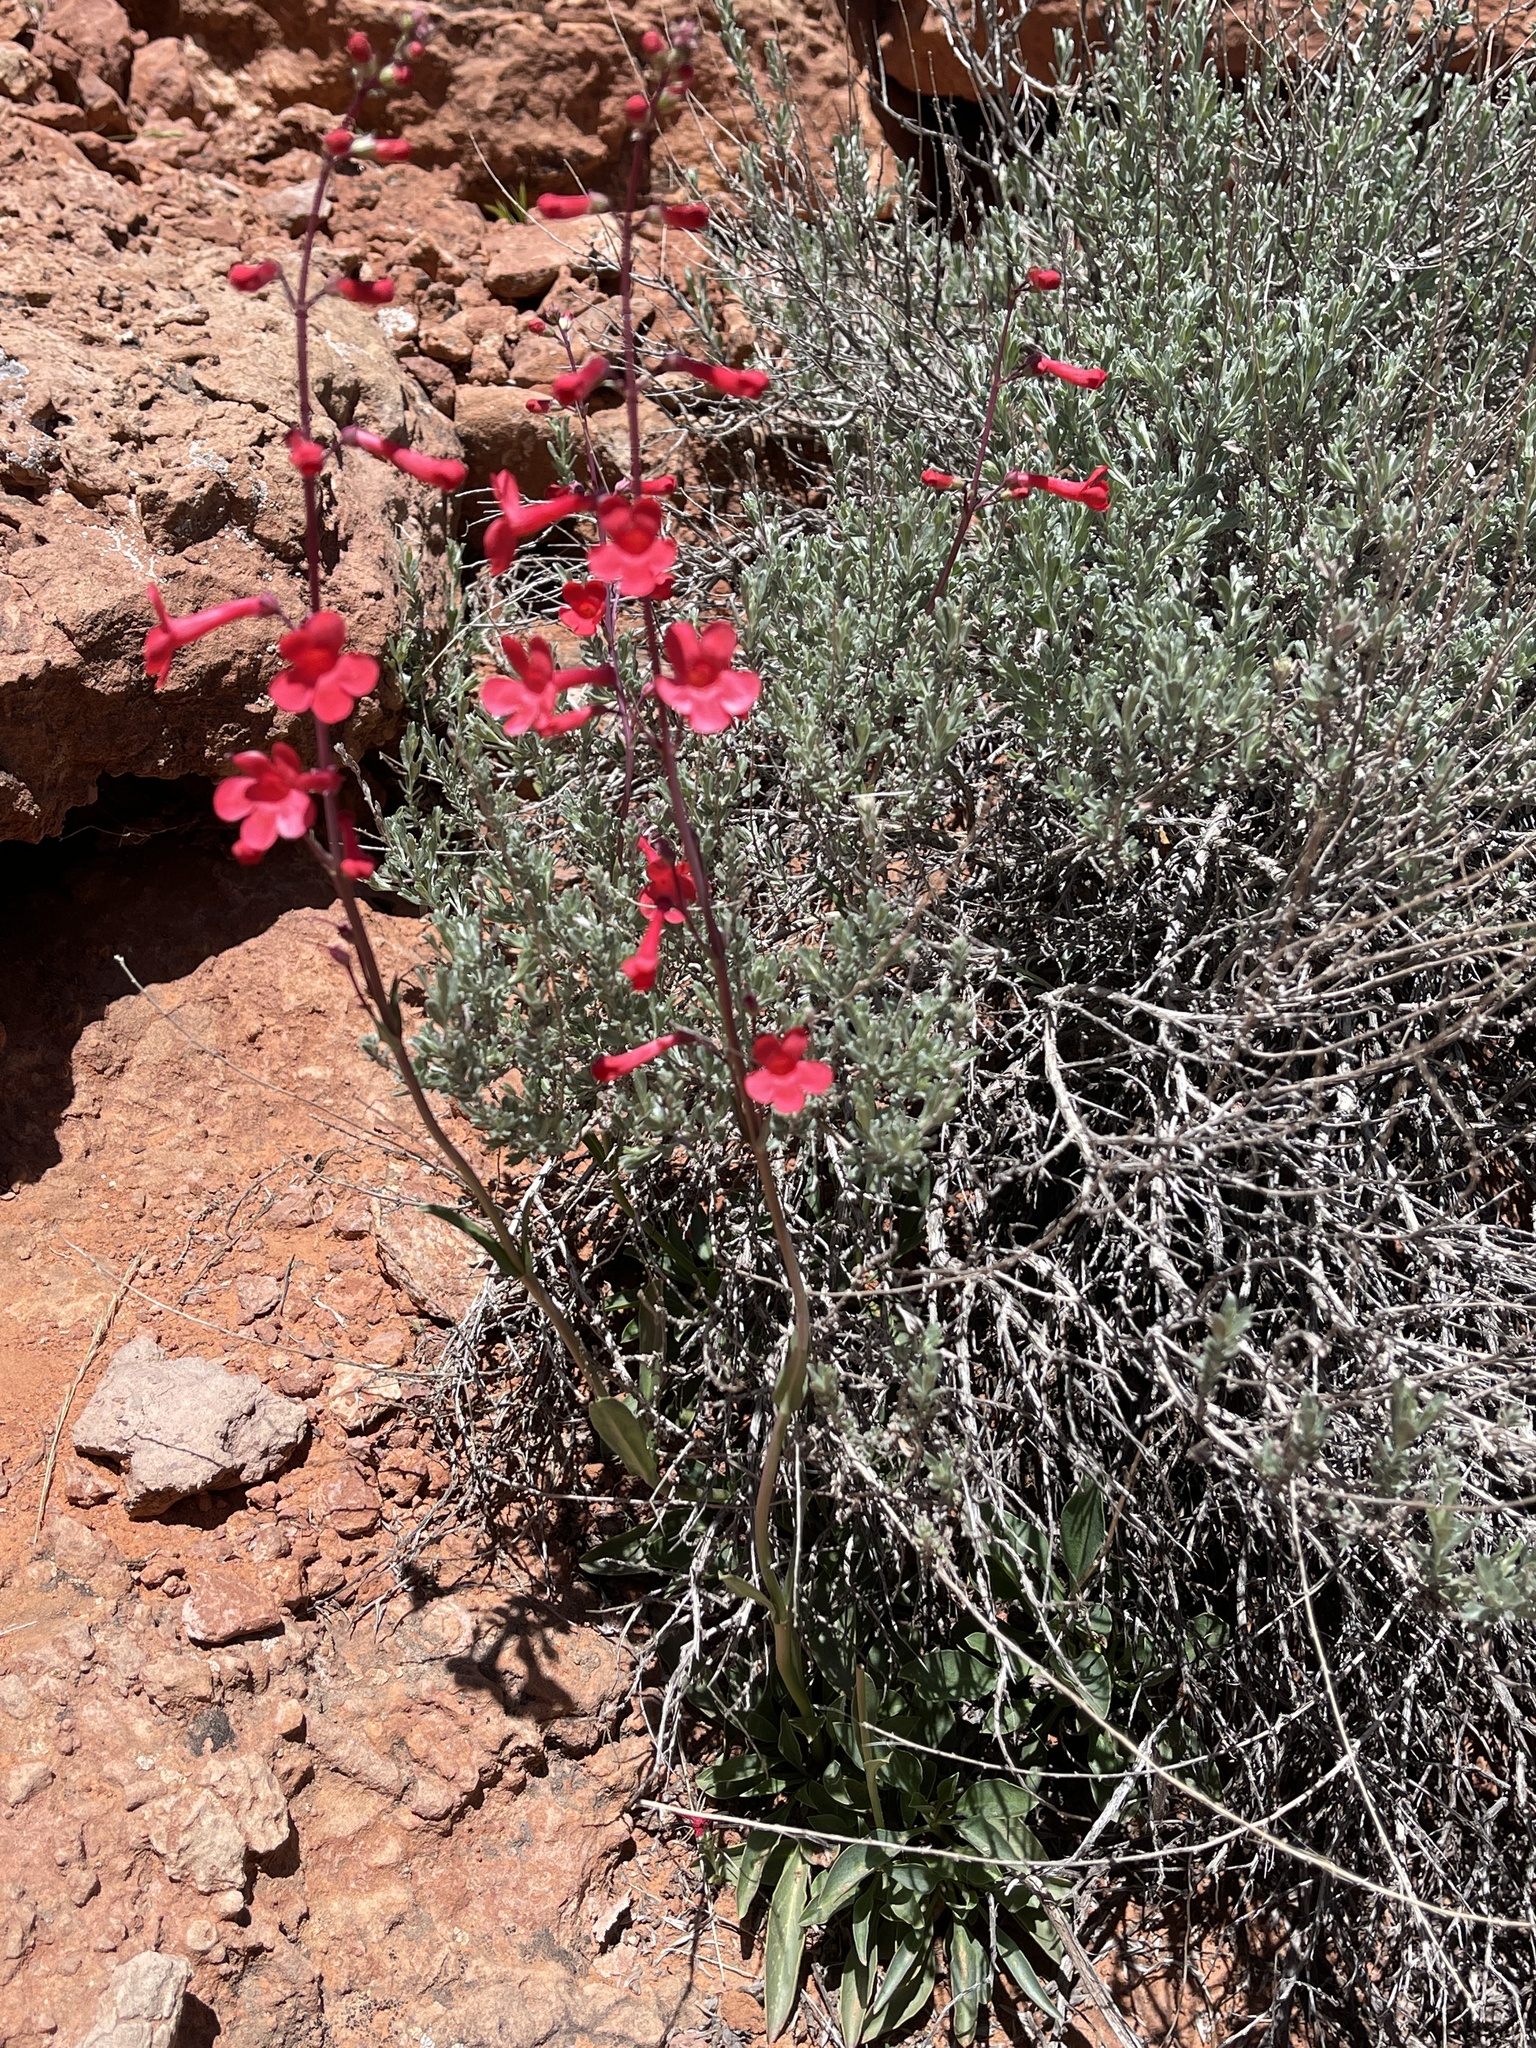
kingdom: Plantae
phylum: Tracheophyta
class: Magnoliopsida
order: Lamiales
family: Plantaginaceae
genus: Penstemon
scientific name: Penstemon utahensis
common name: Utah penstemon
